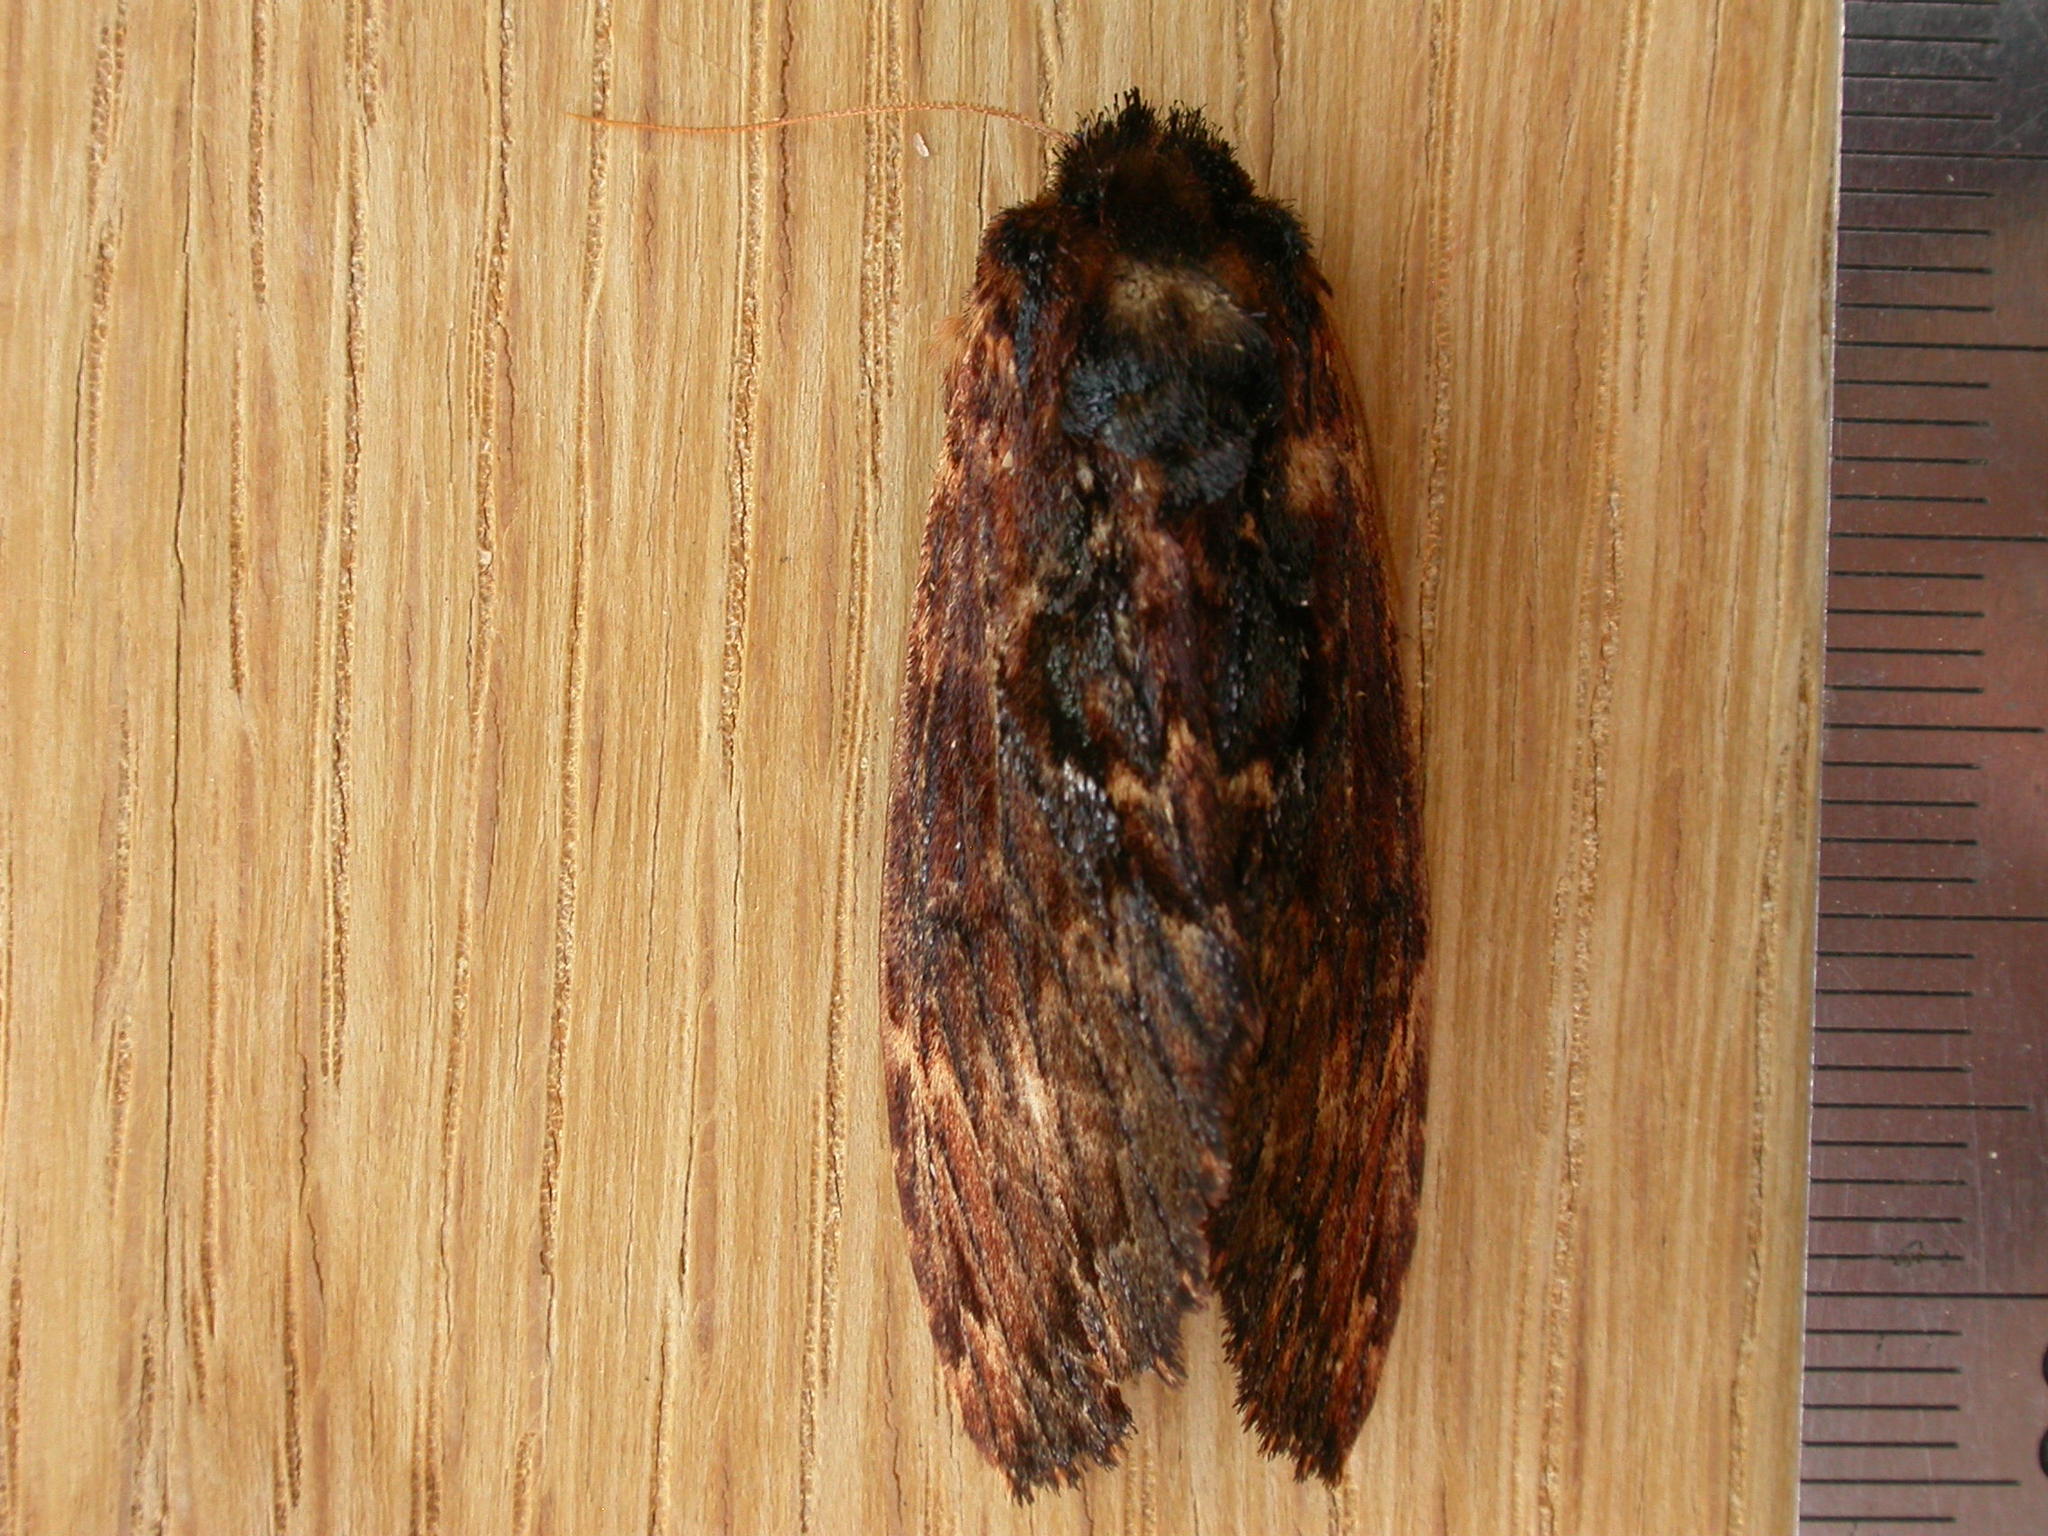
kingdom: Animalia
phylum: Arthropoda
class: Insecta
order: Lepidoptera
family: Notodontidae
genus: Sorama
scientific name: Sorama bicolor
